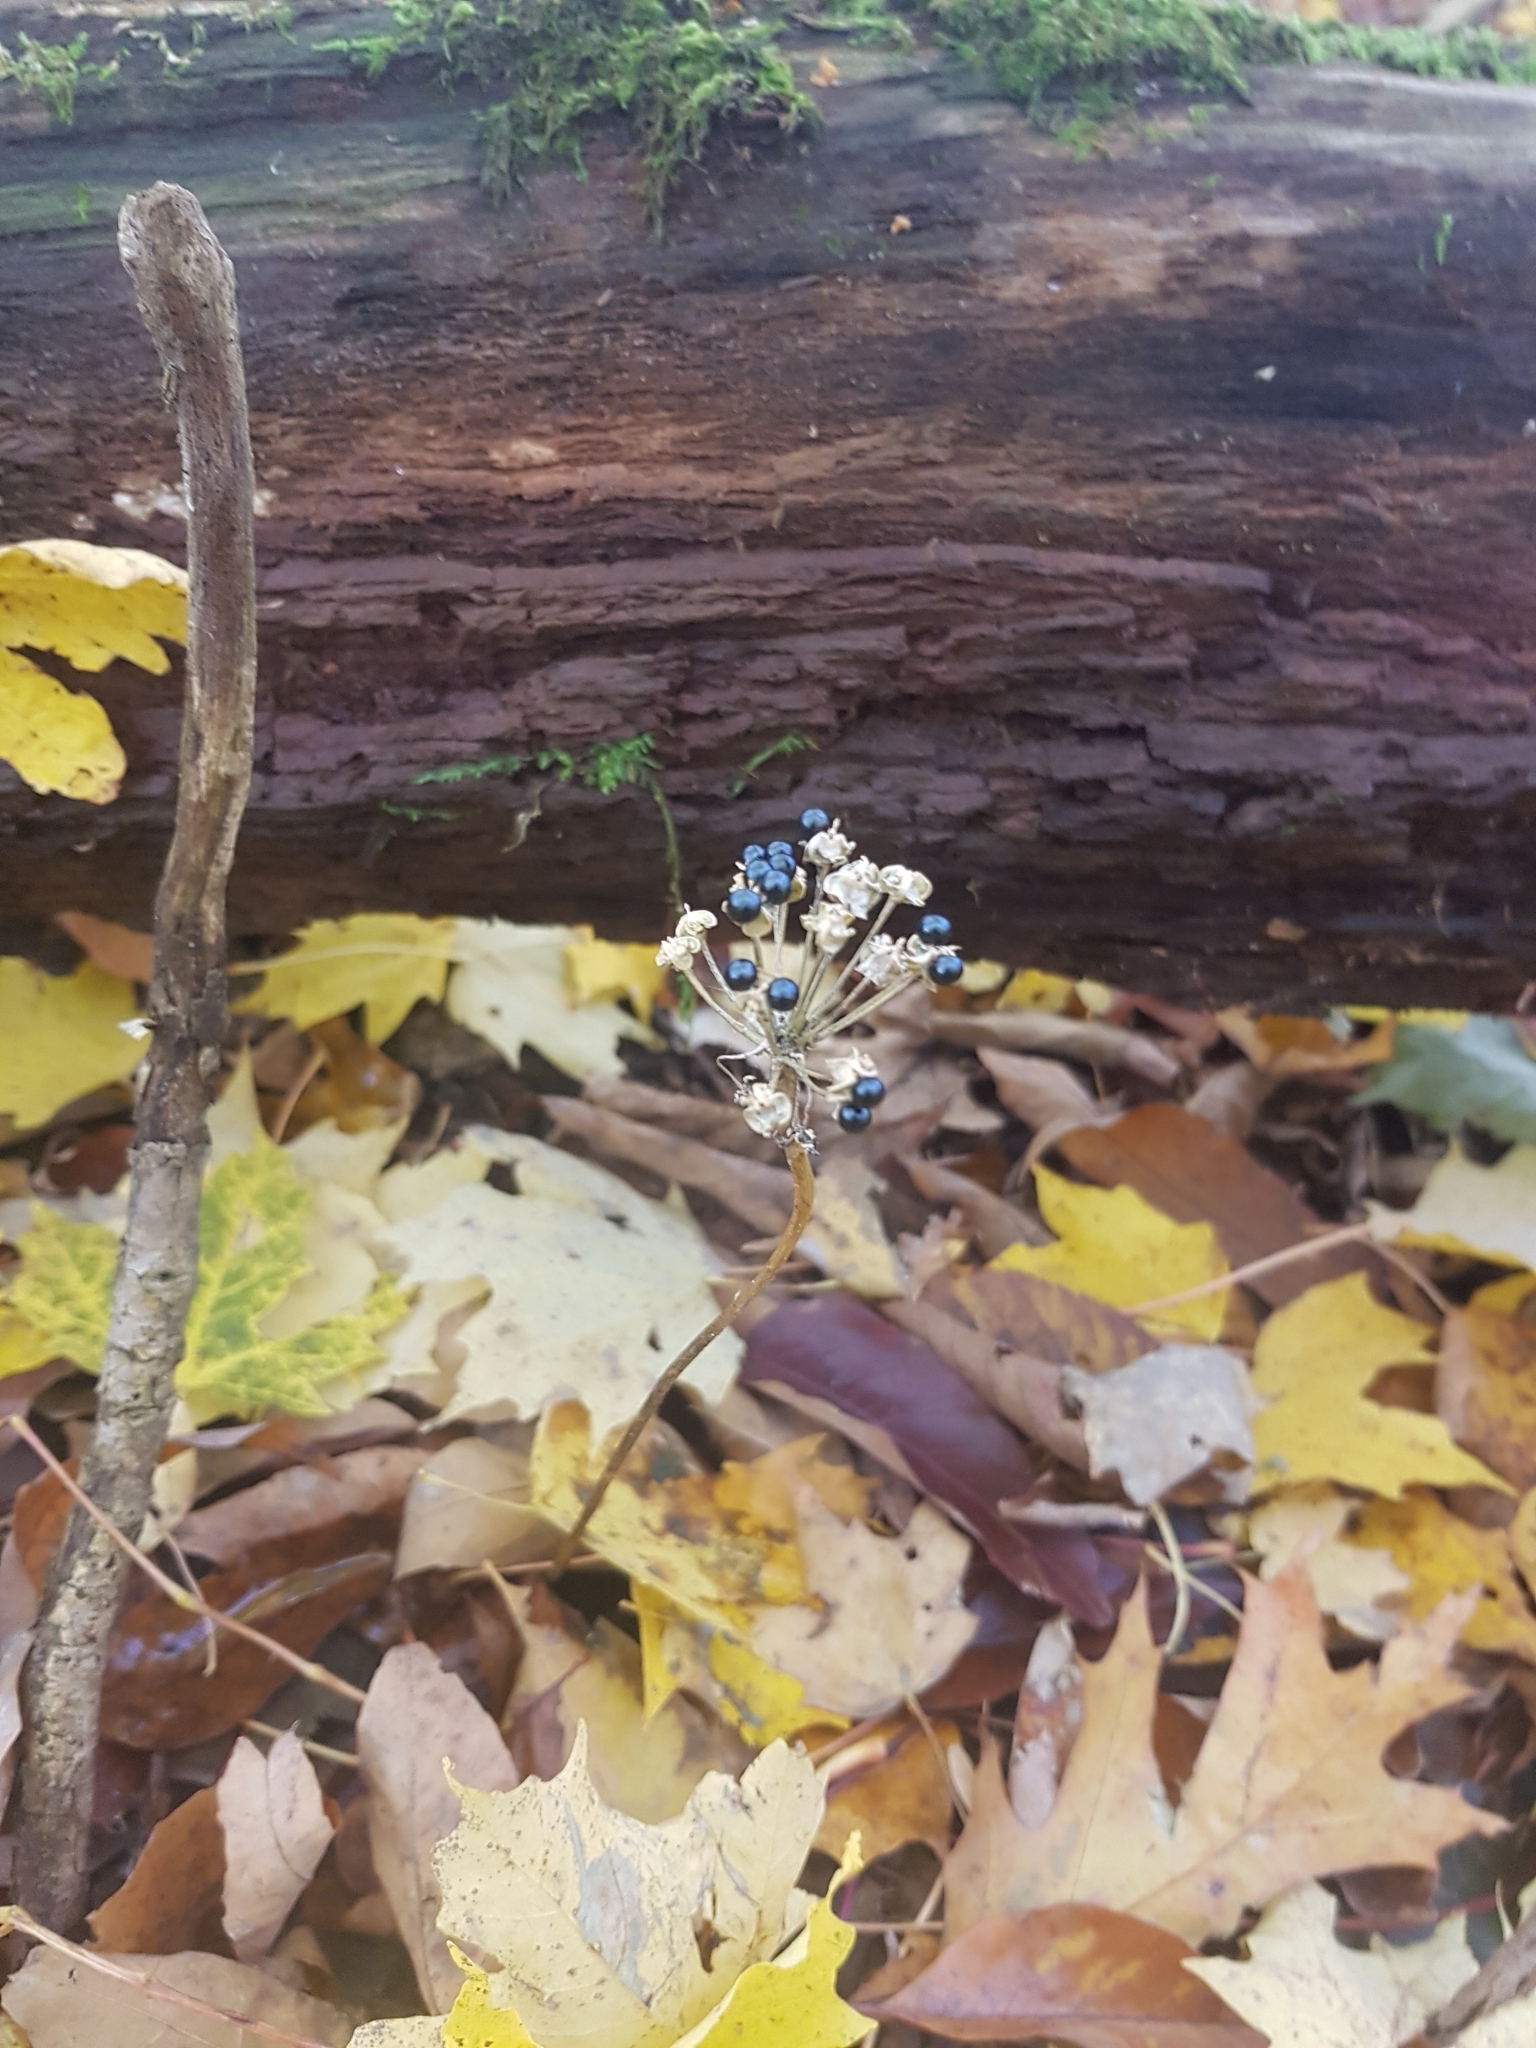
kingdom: Plantae
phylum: Tracheophyta
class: Liliopsida
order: Asparagales
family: Amaryllidaceae
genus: Allium
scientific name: Allium tricoccum
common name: Ramp
